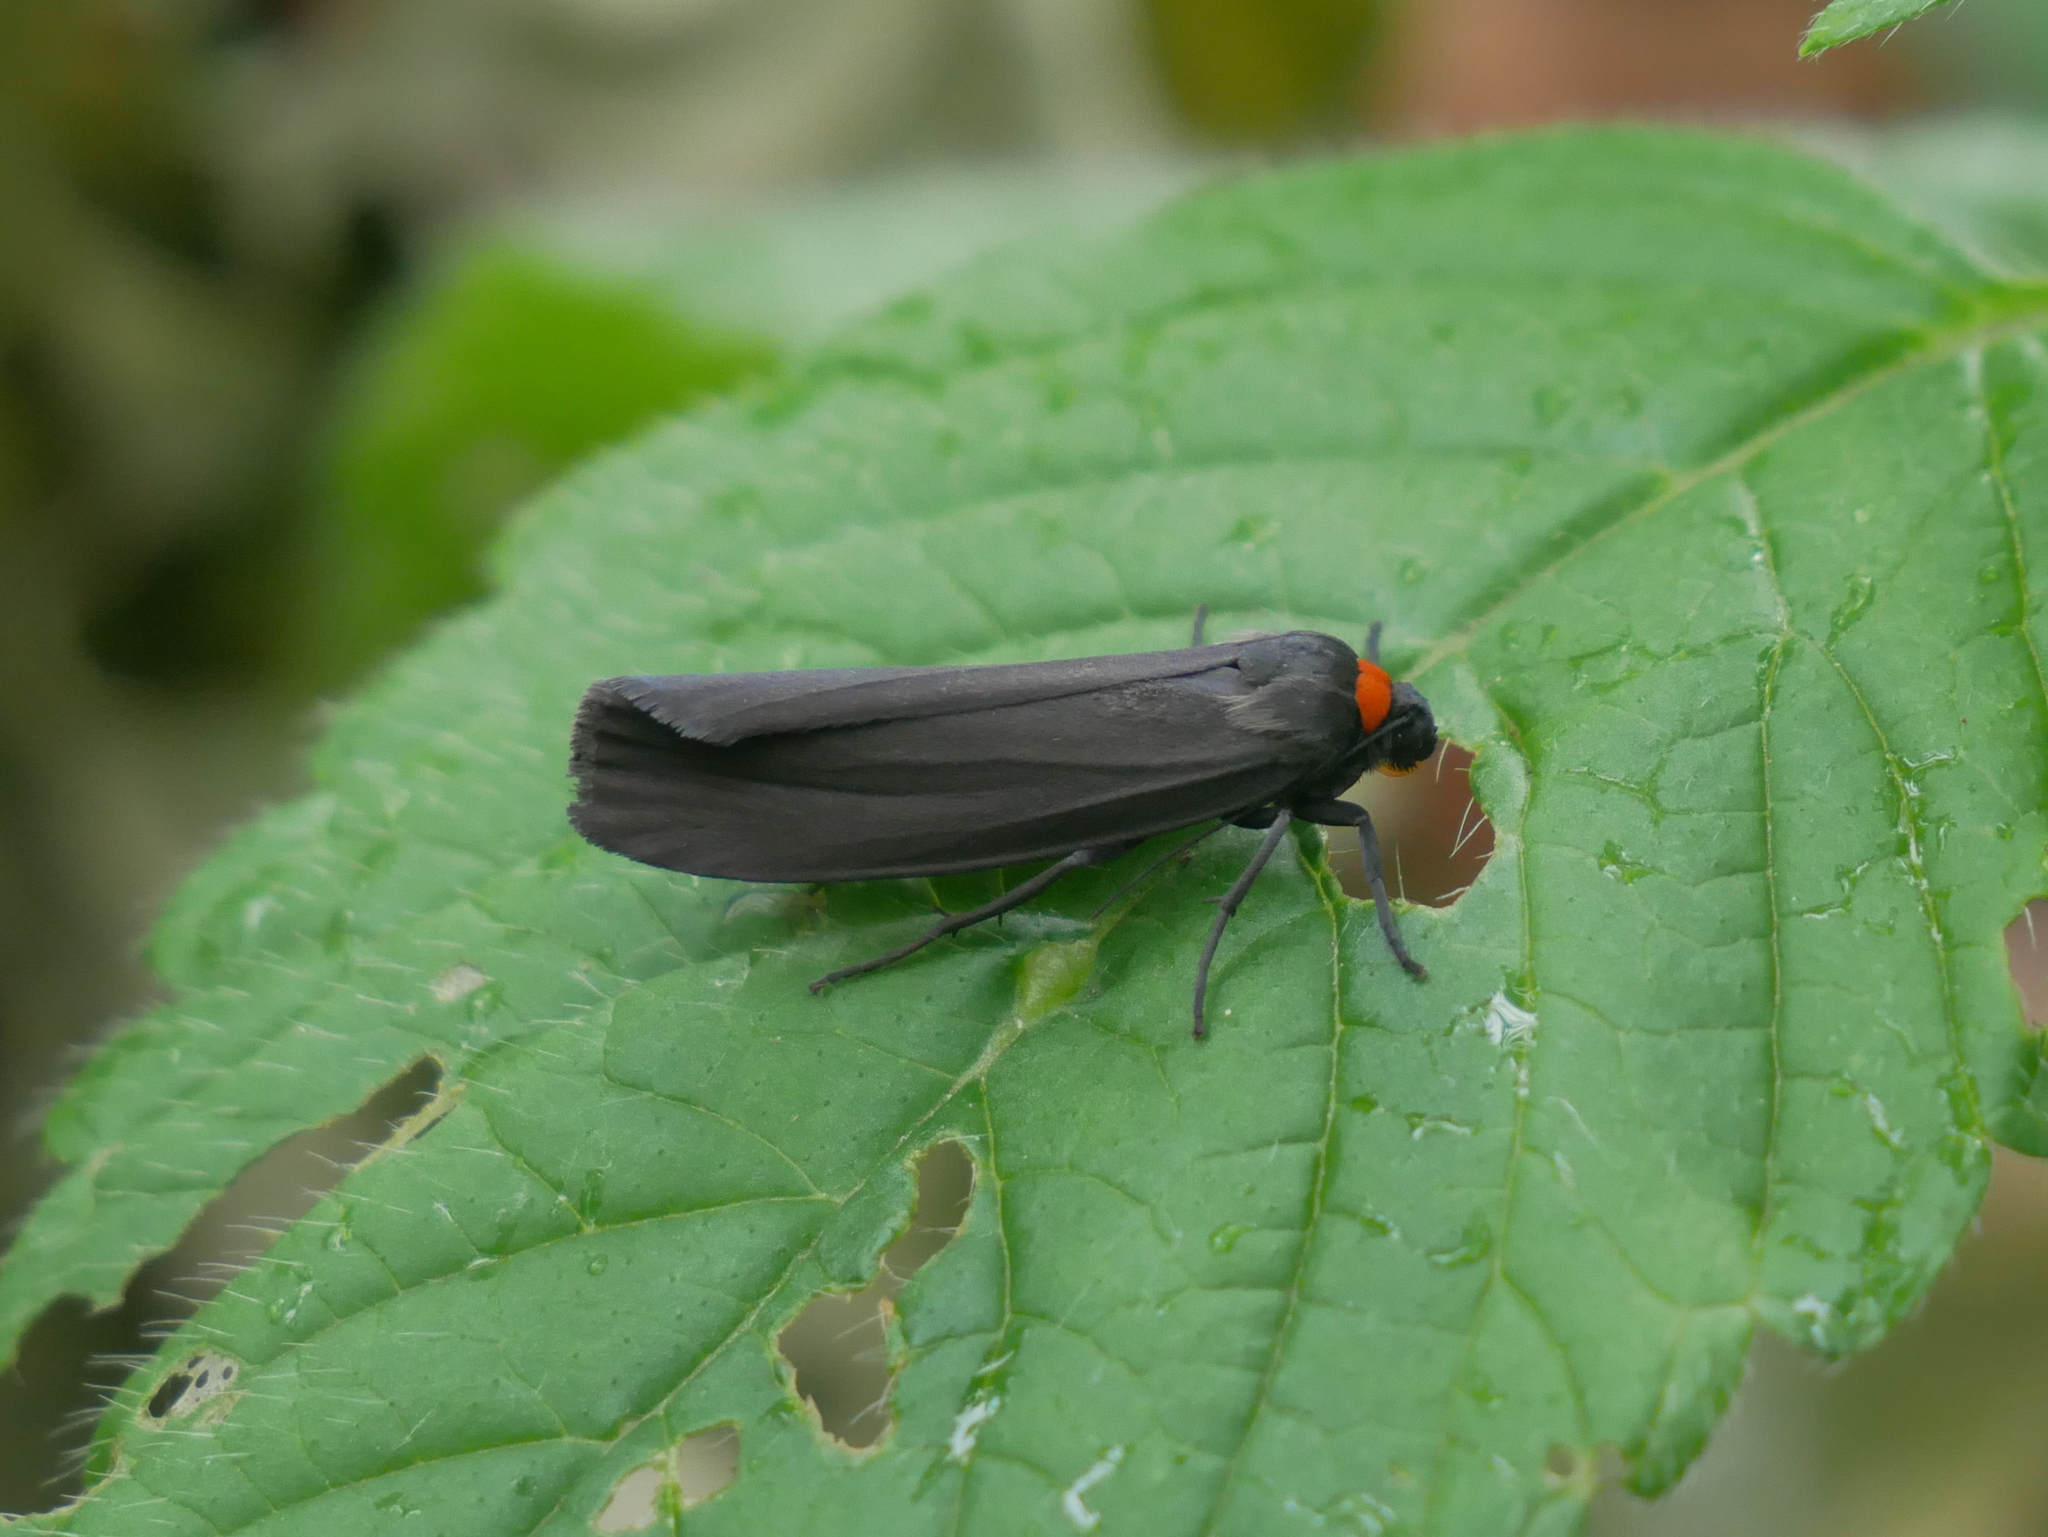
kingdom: Animalia
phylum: Arthropoda
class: Insecta
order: Lepidoptera
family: Erebidae
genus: Atolmis
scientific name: Atolmis rubricollis
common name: Red-necked footman
